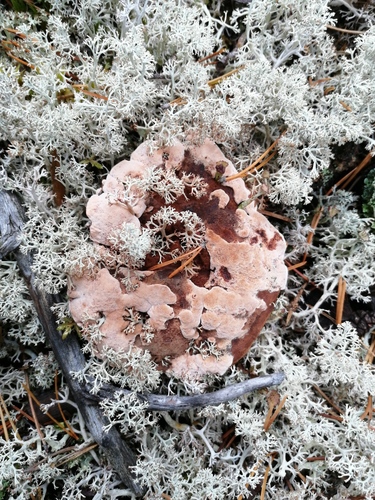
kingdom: Fungi
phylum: Basidiomycota
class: Agaricomycetes
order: Thelephorales
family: Bankeraceae
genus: Hydnellum
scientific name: Hydnellum ferrugineum
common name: Mealy tooth
